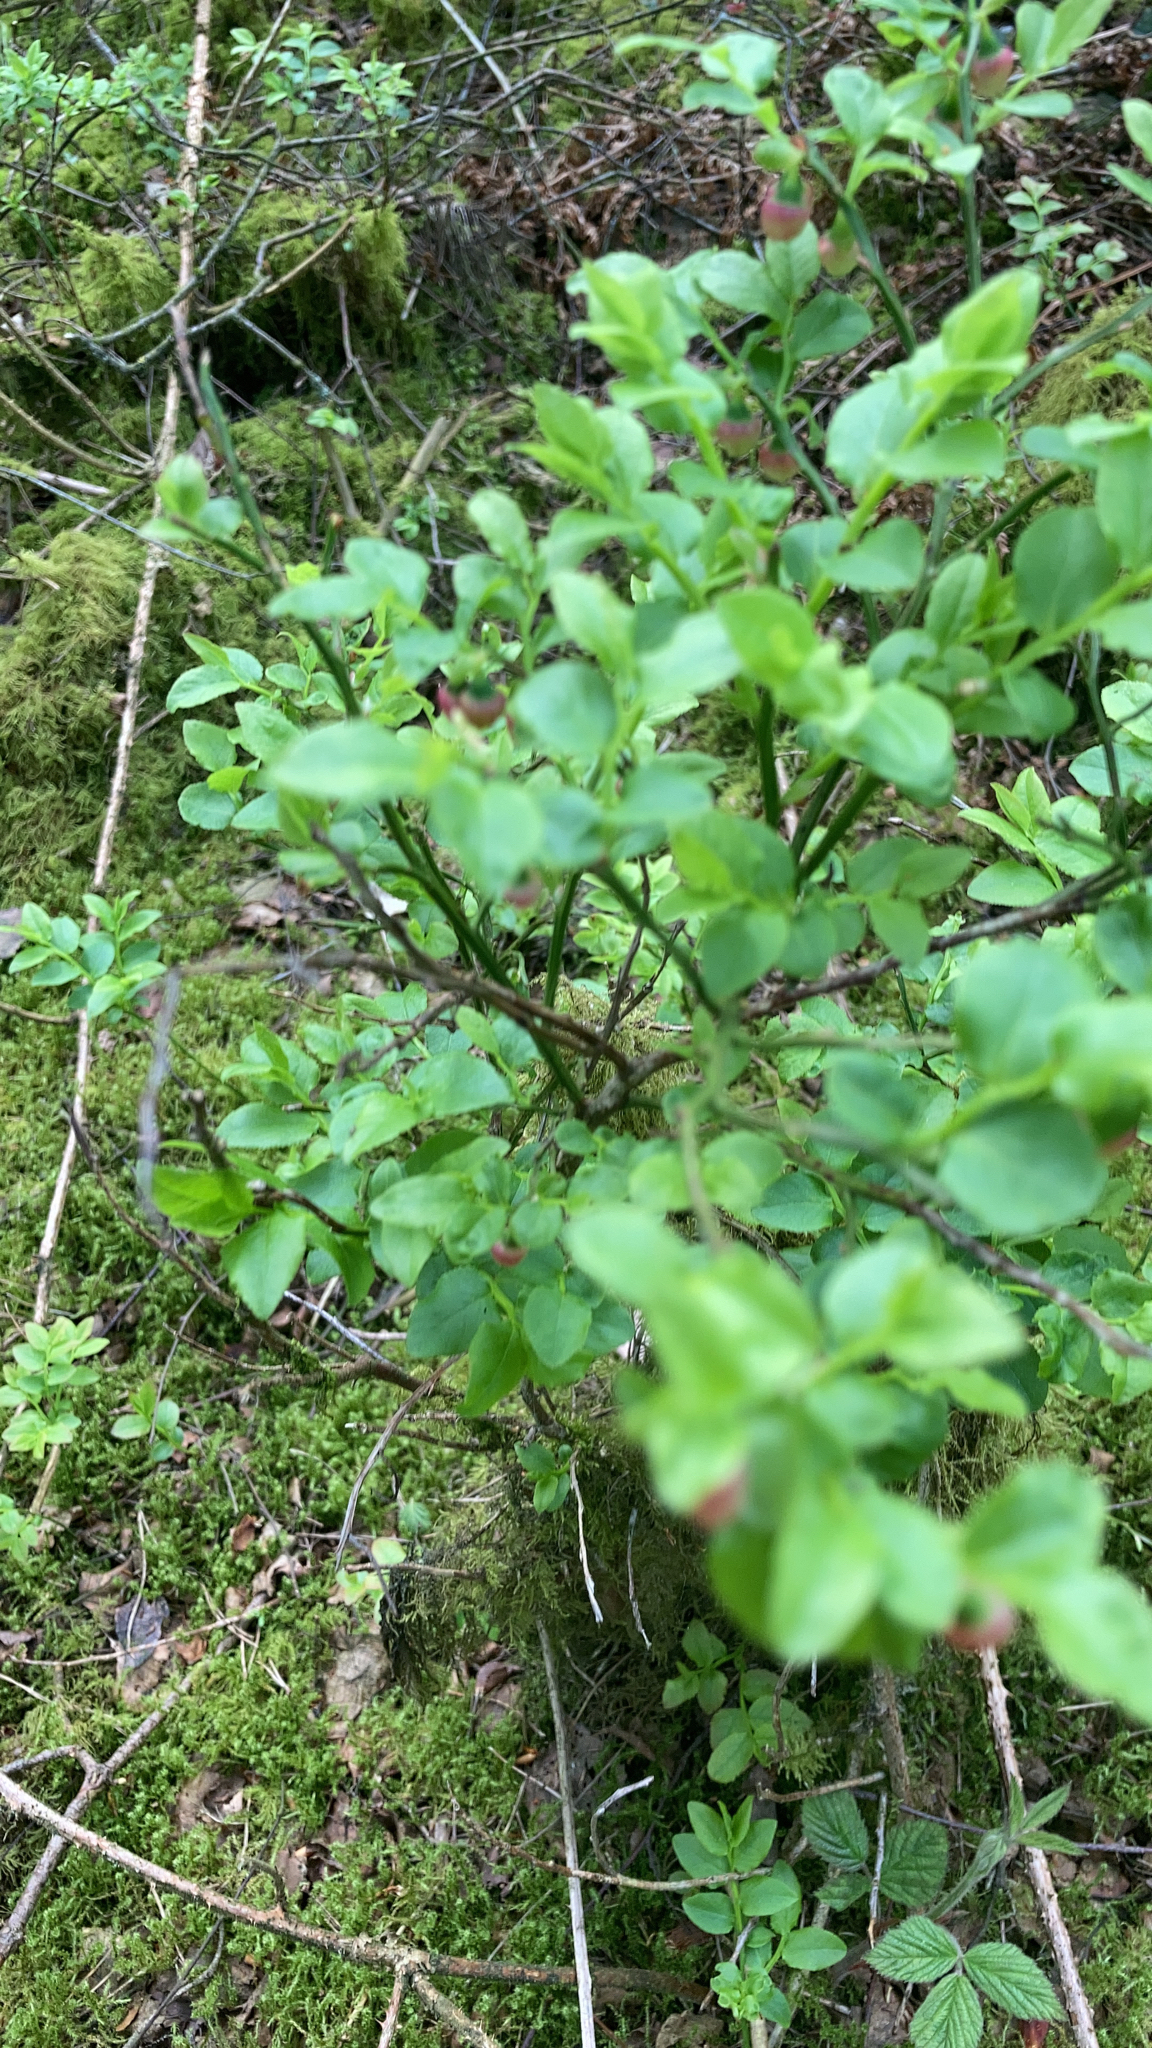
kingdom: Plantae
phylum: Tracheophyta
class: Magnoliopsida
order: Ericales
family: Ericaceae
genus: Vaccinium
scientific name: Vaccinium myrtillus
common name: Bilberry
